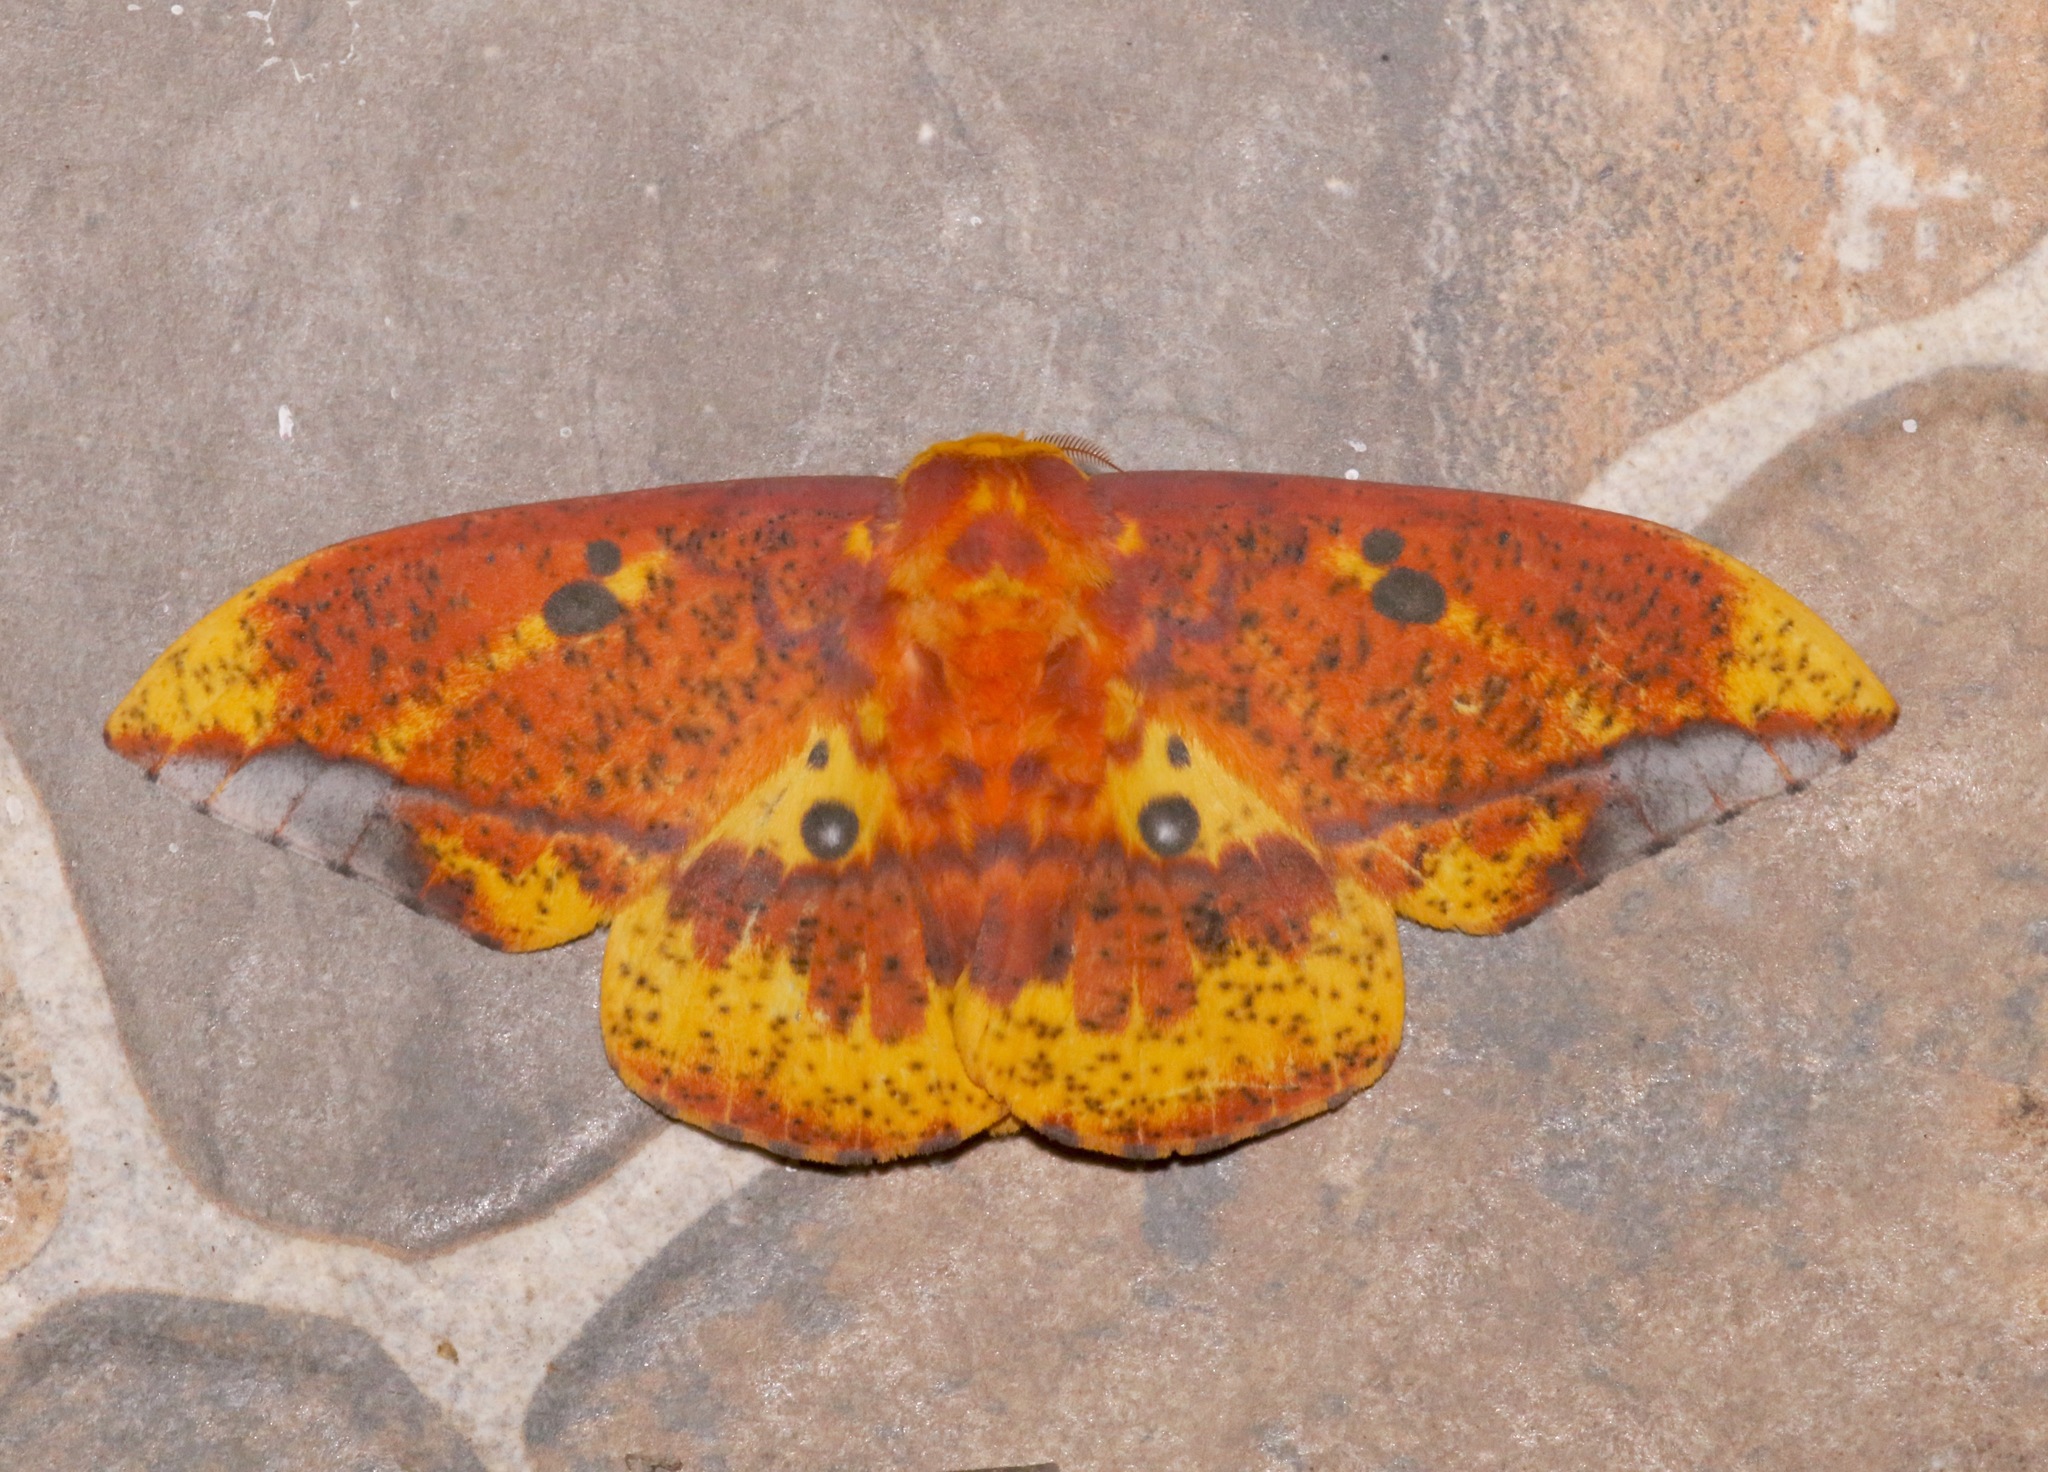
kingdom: Animalia
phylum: Arthropoda
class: Insecta
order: Lepidoptera
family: Saturniidae
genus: Eacles
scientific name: Eacles ormondei
